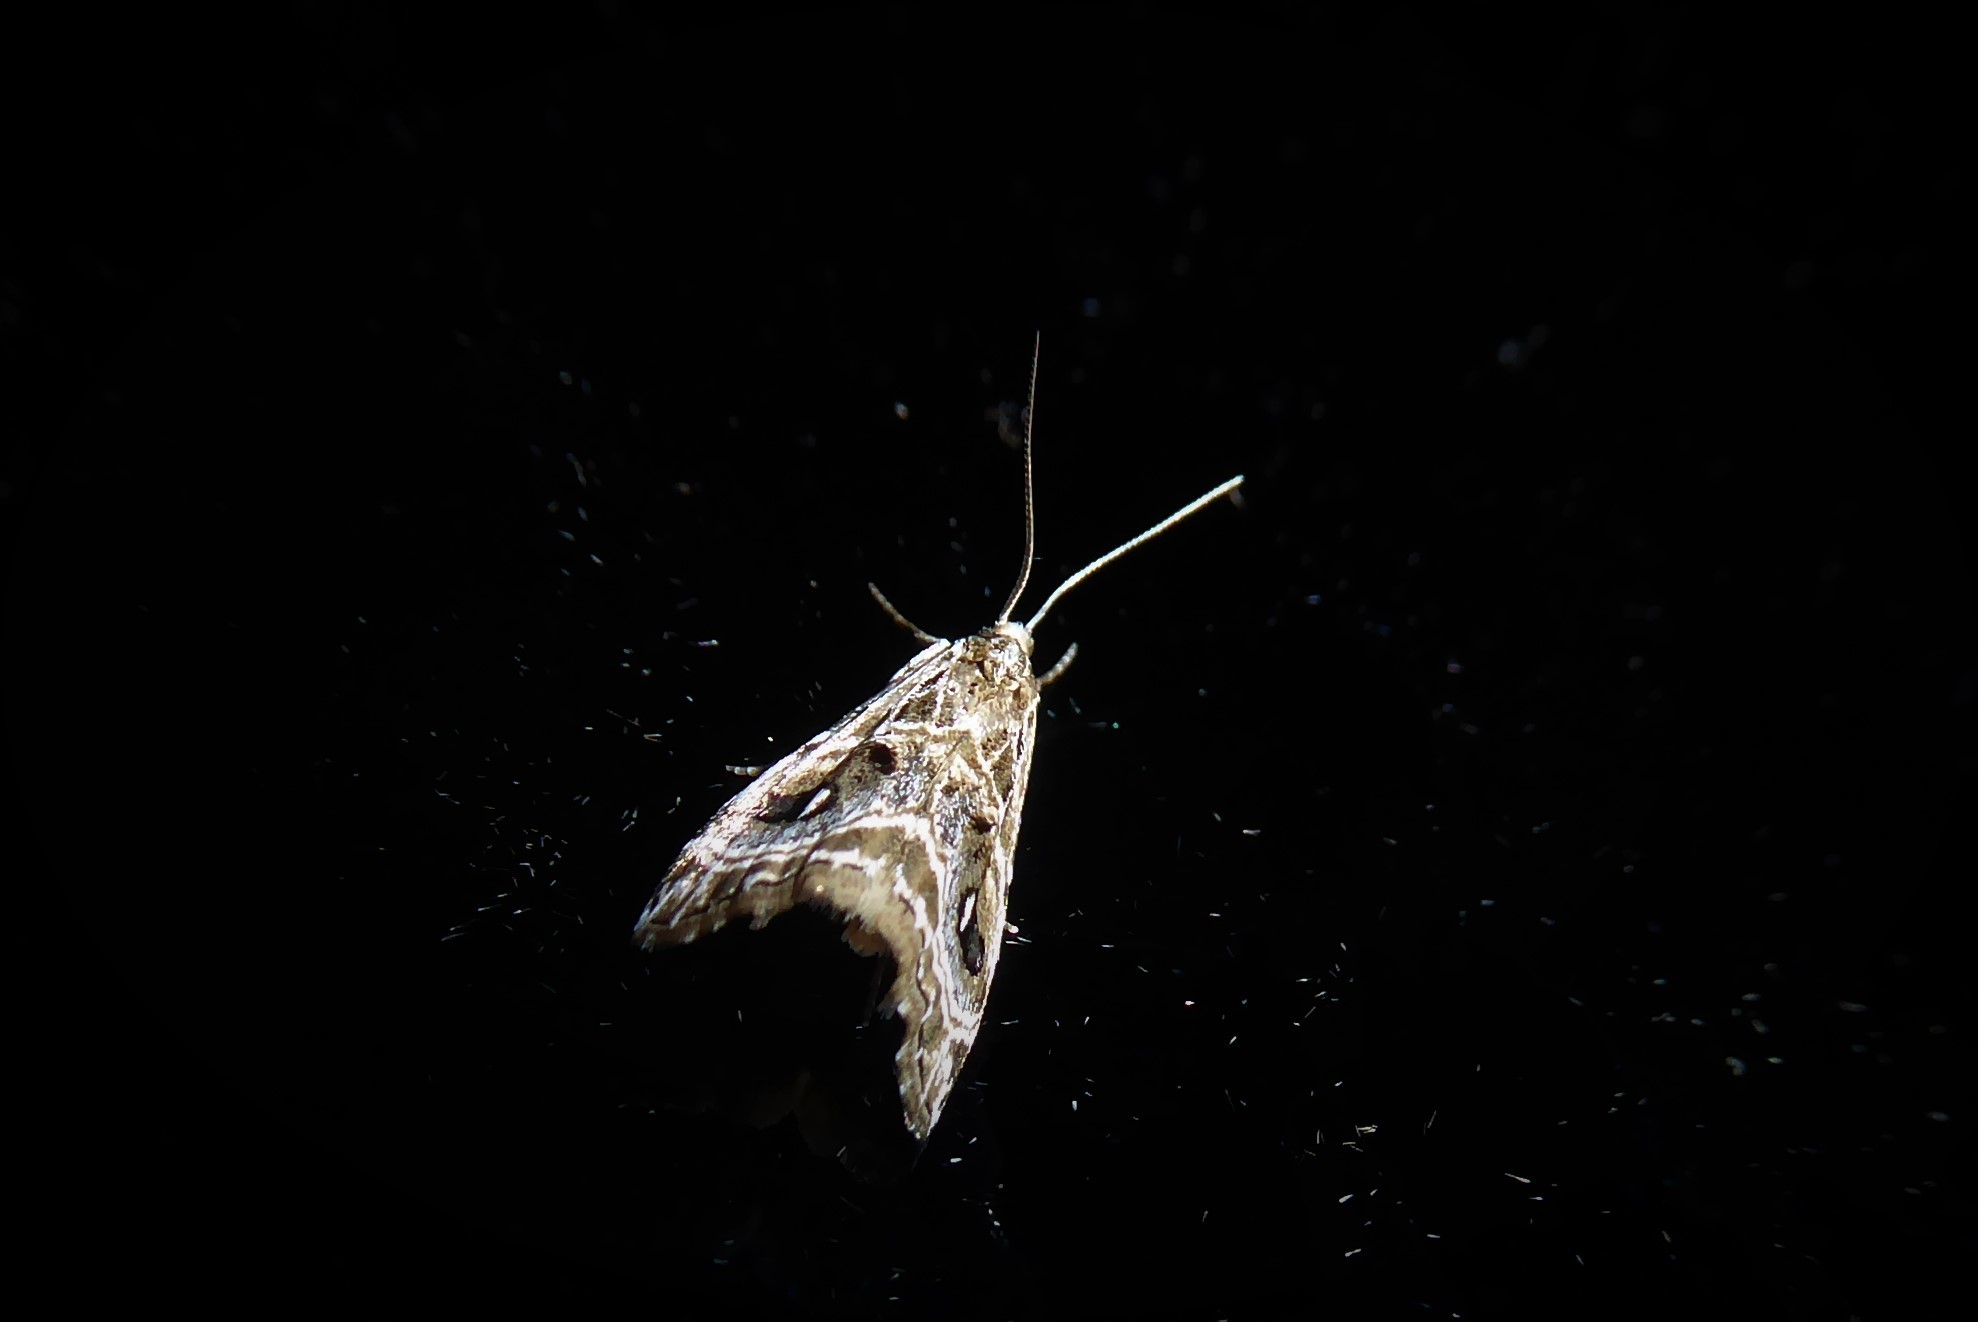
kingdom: Animalia
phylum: Arthropoda
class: Insecta
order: Lepidoptera
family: Crambidae
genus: Gadira
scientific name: Gadira acerella
